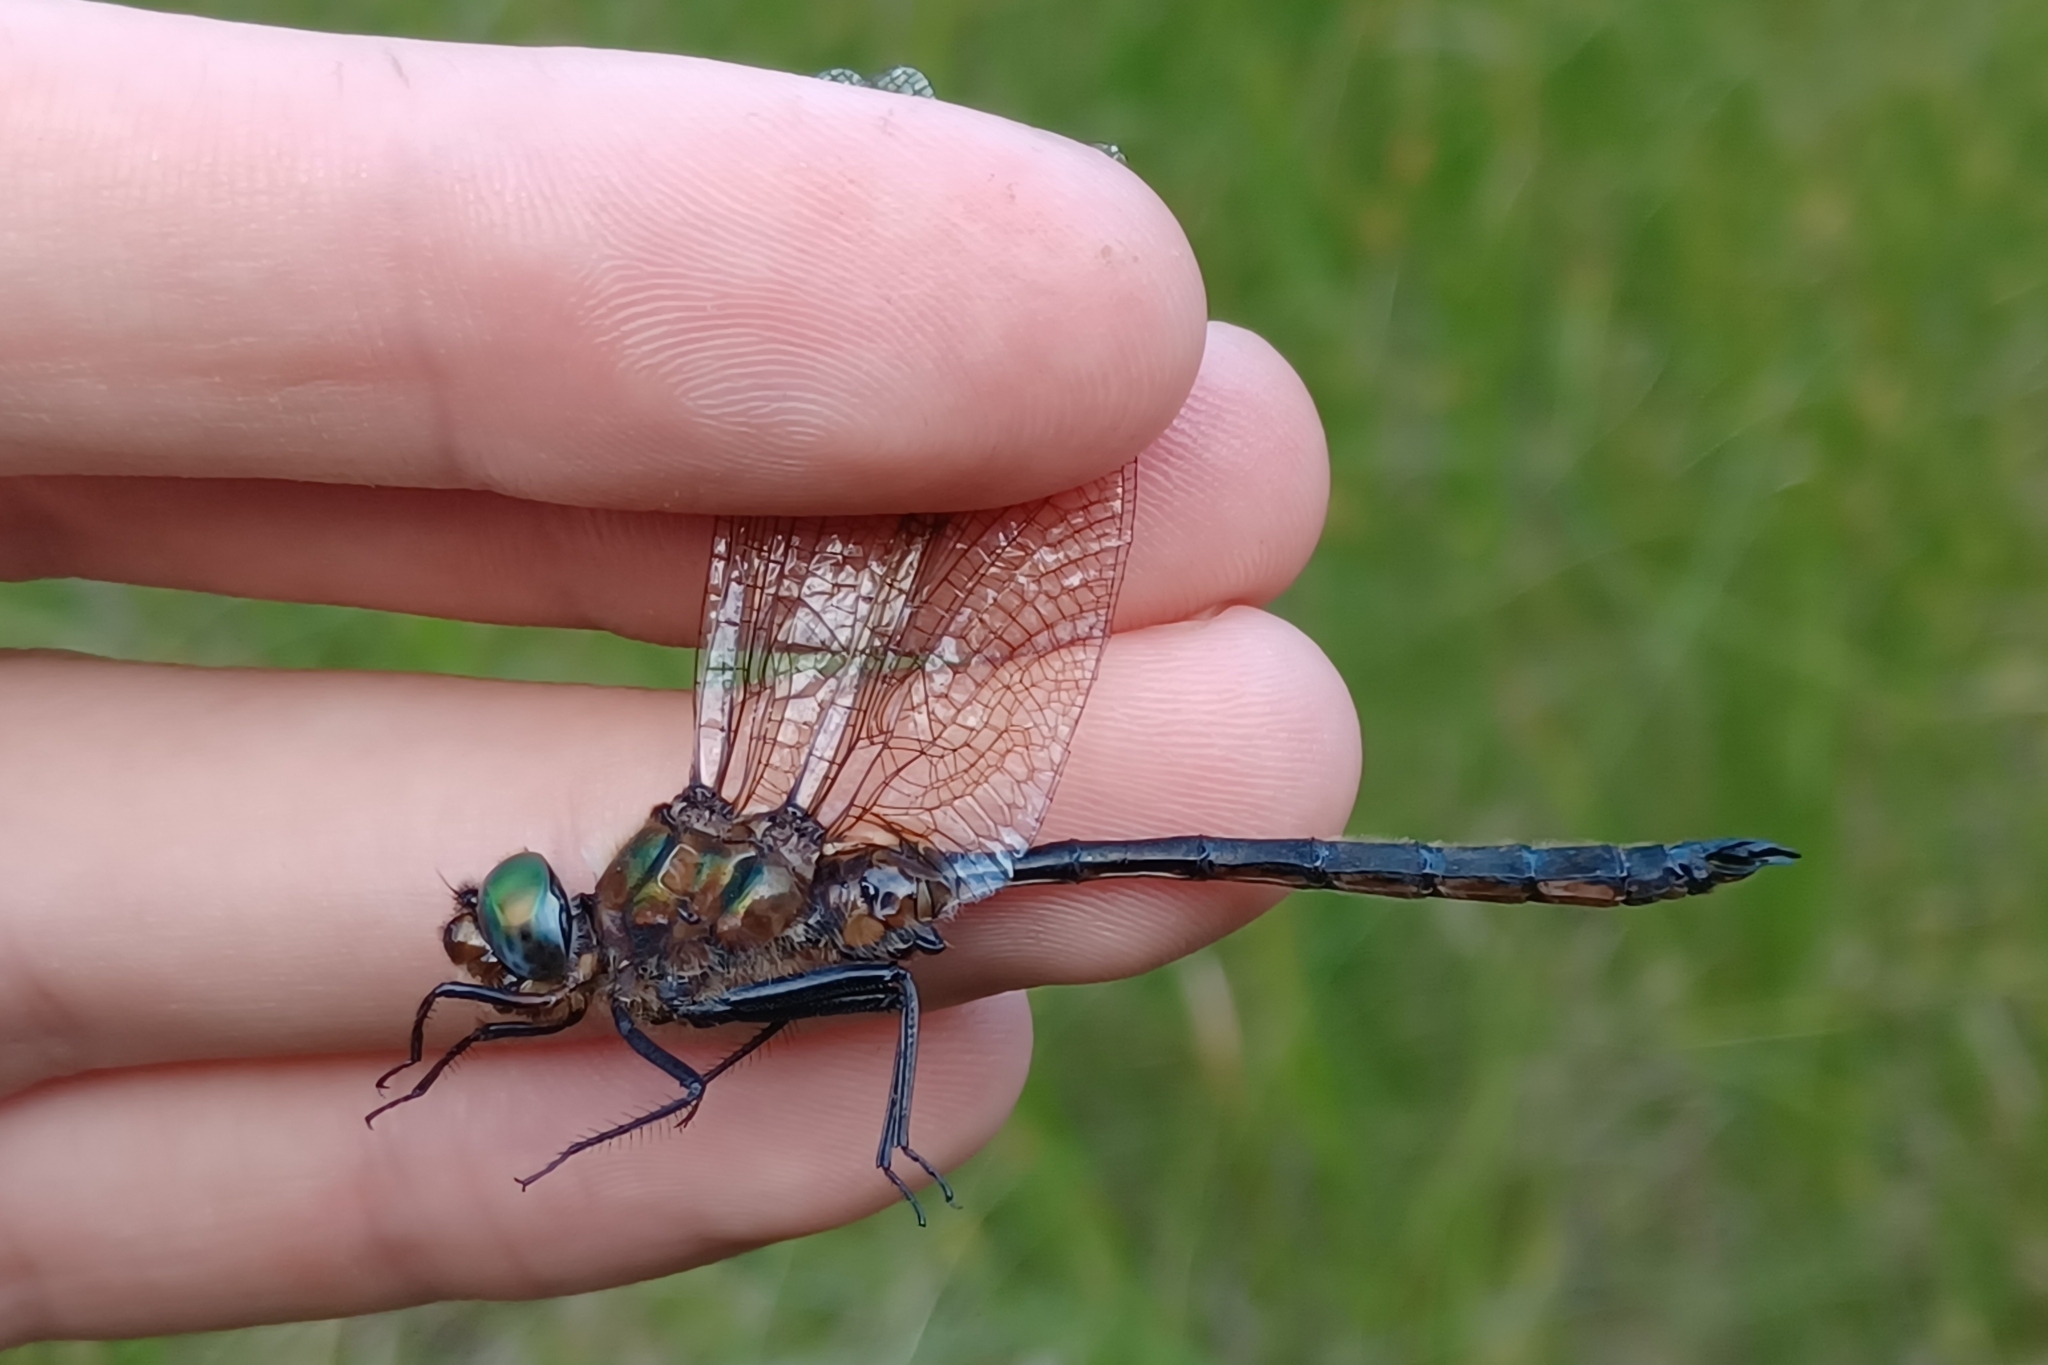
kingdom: Animalia
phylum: Arthropoda
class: Insecta
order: Odonata
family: Corduliidae
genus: Somatochlora
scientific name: Somatochlora kennedyi
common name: Kennedy's emerald
